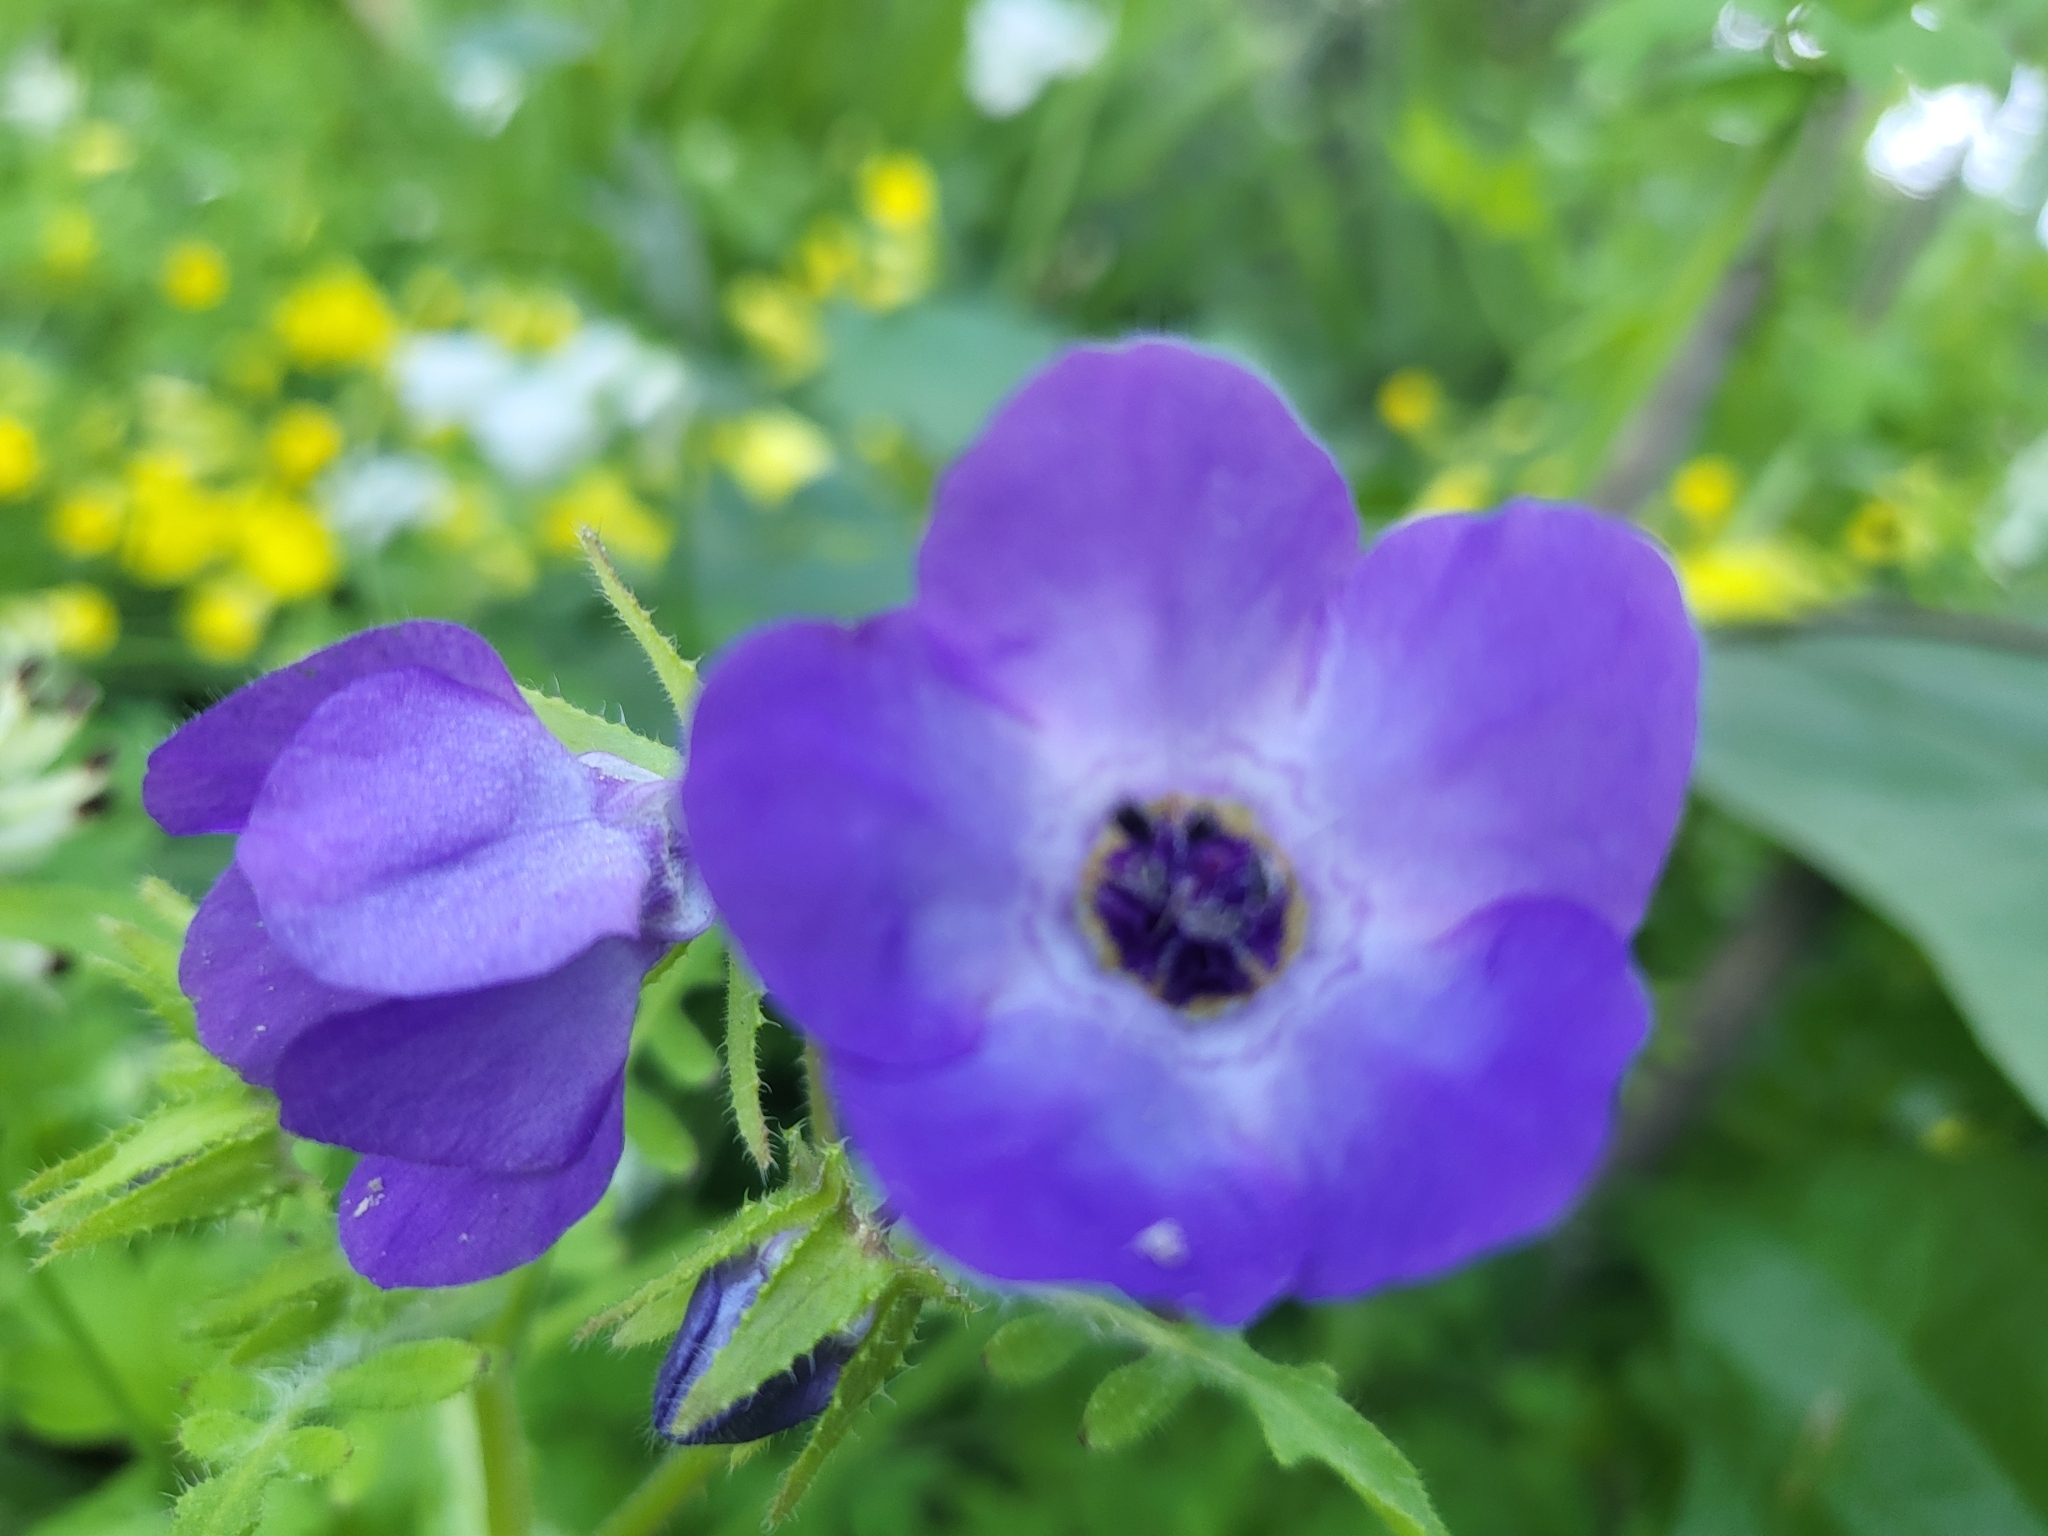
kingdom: Plantae
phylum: Tracheophyta
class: Magnoliopsida
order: Boraginales
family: Hydrophyllaceae
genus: Pholistoma
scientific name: Pholistoma auritum
